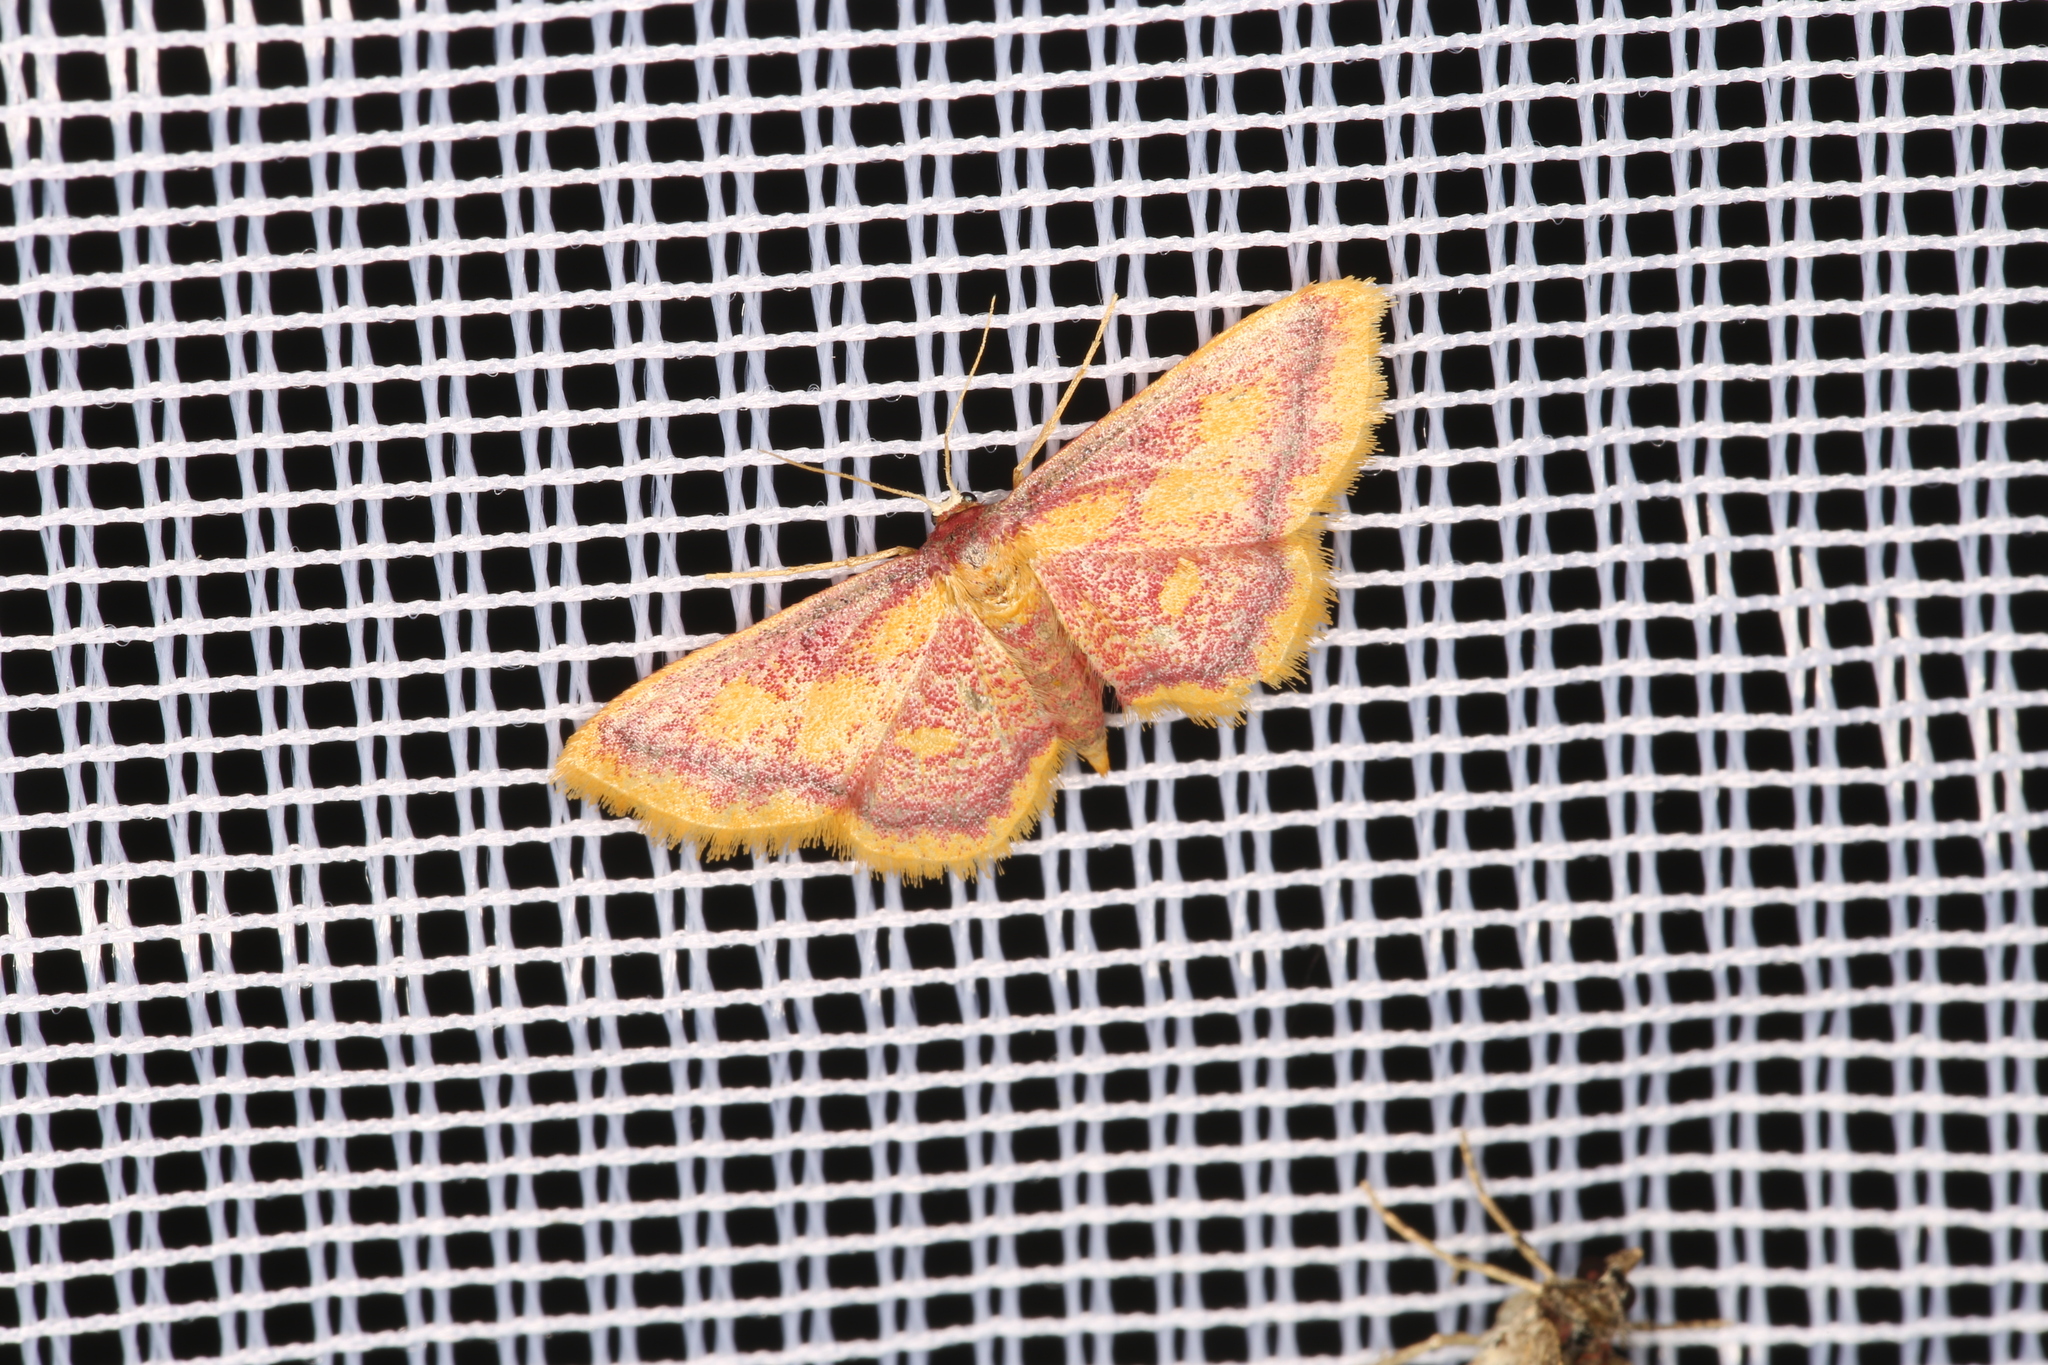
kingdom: Animalia
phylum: Arthropoda
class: Insecta
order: Lepidoptera
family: Geometridae
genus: Idaea
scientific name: Idaea muricata
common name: Purple-bordered gold
